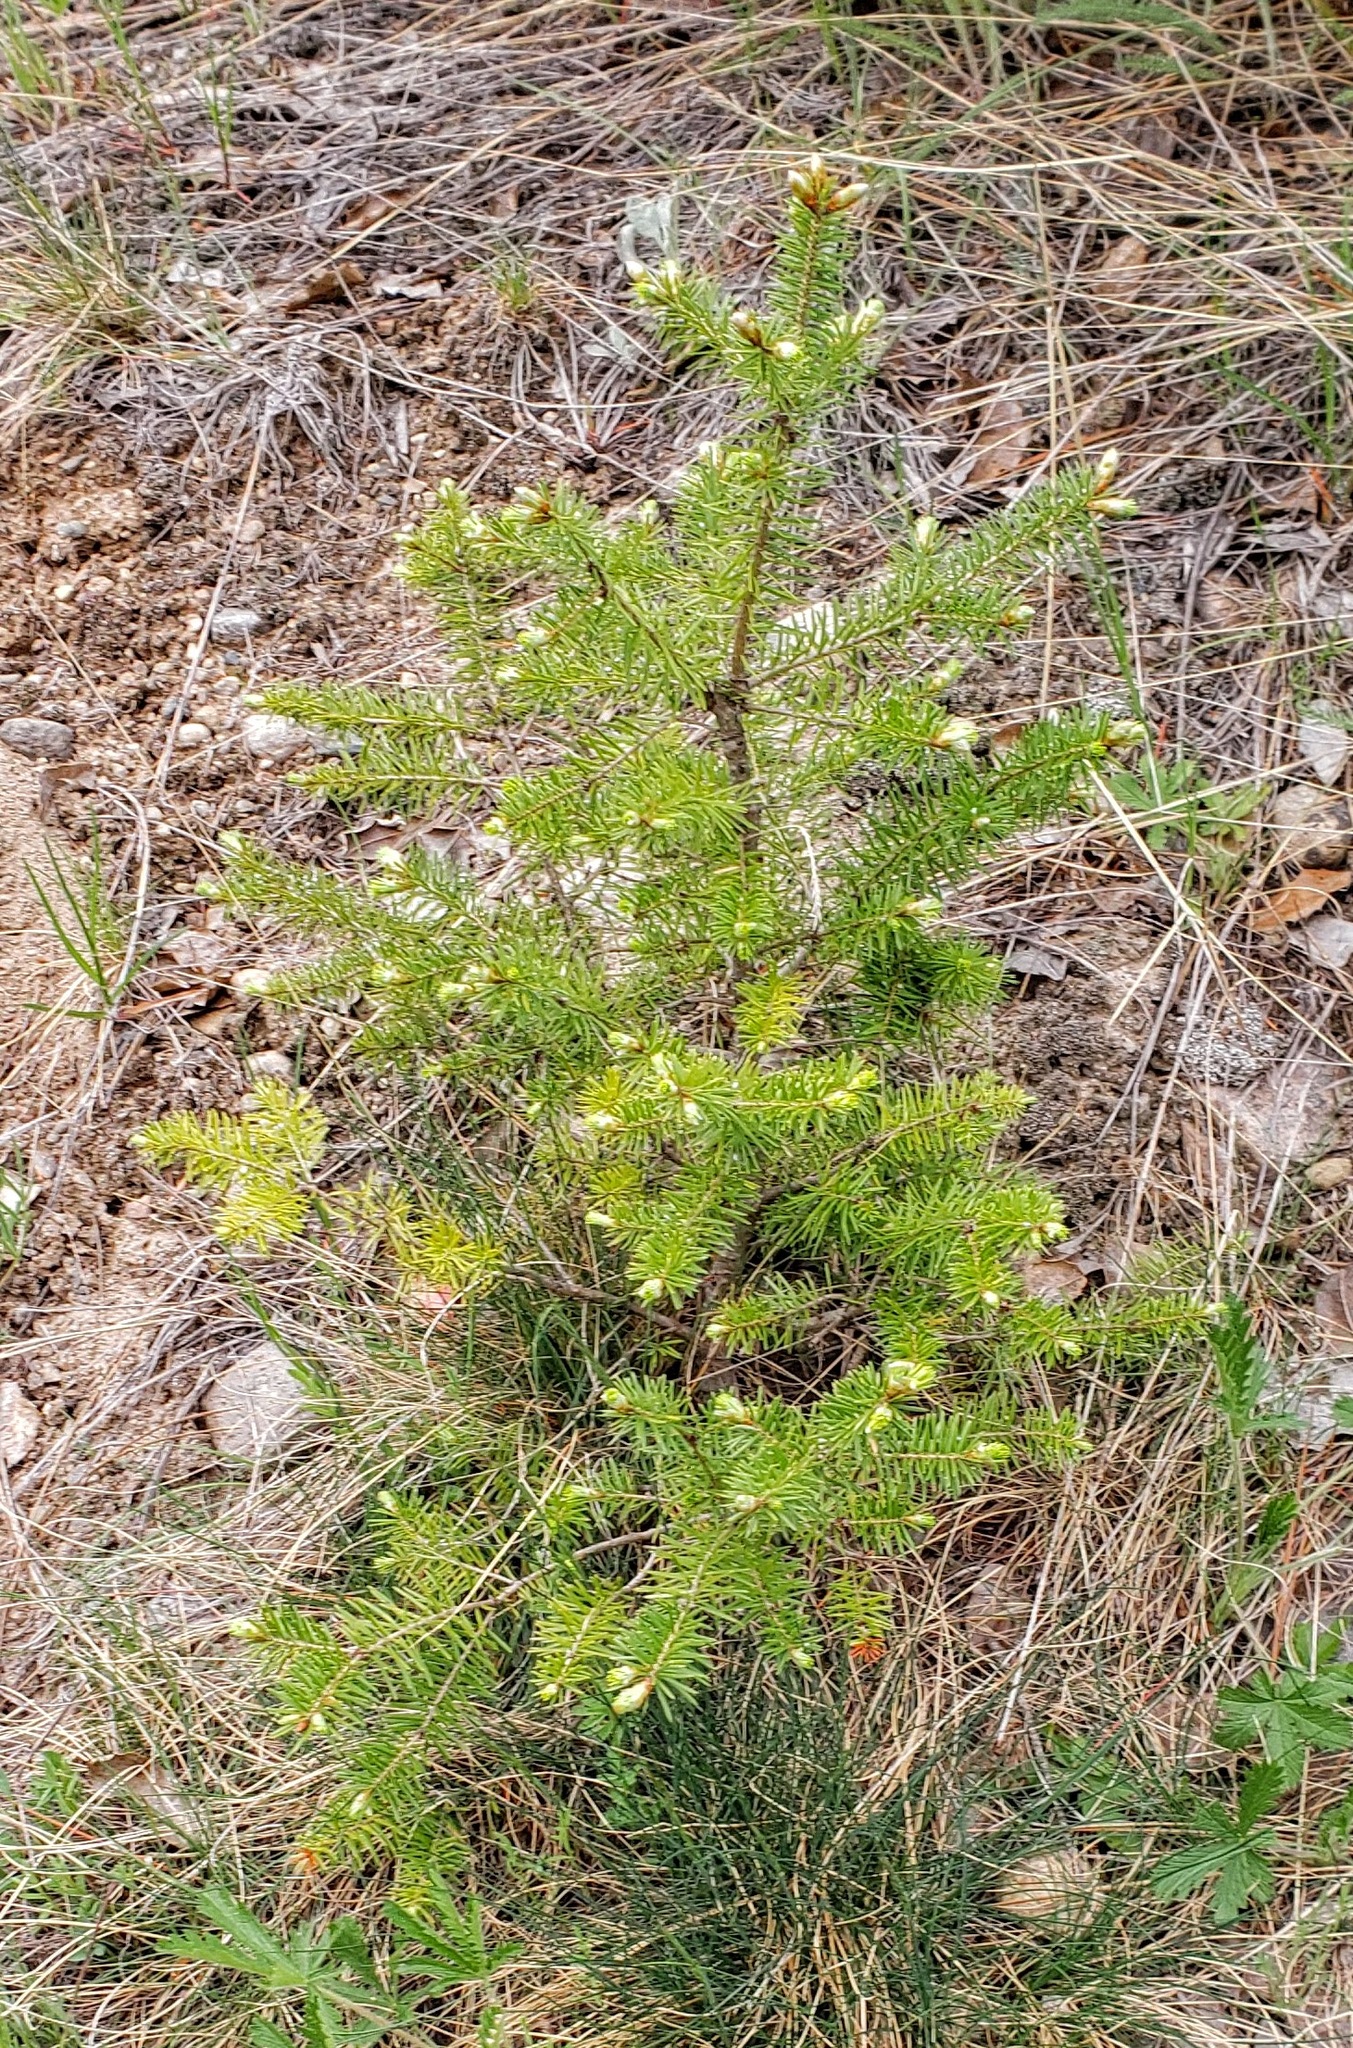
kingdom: Plantae
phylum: Tracheophyta
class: Pinopsida
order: Pinales
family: Pinaceae
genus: Pseudotsuga
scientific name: Pseudotsuga menziesii
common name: Douglas fir
